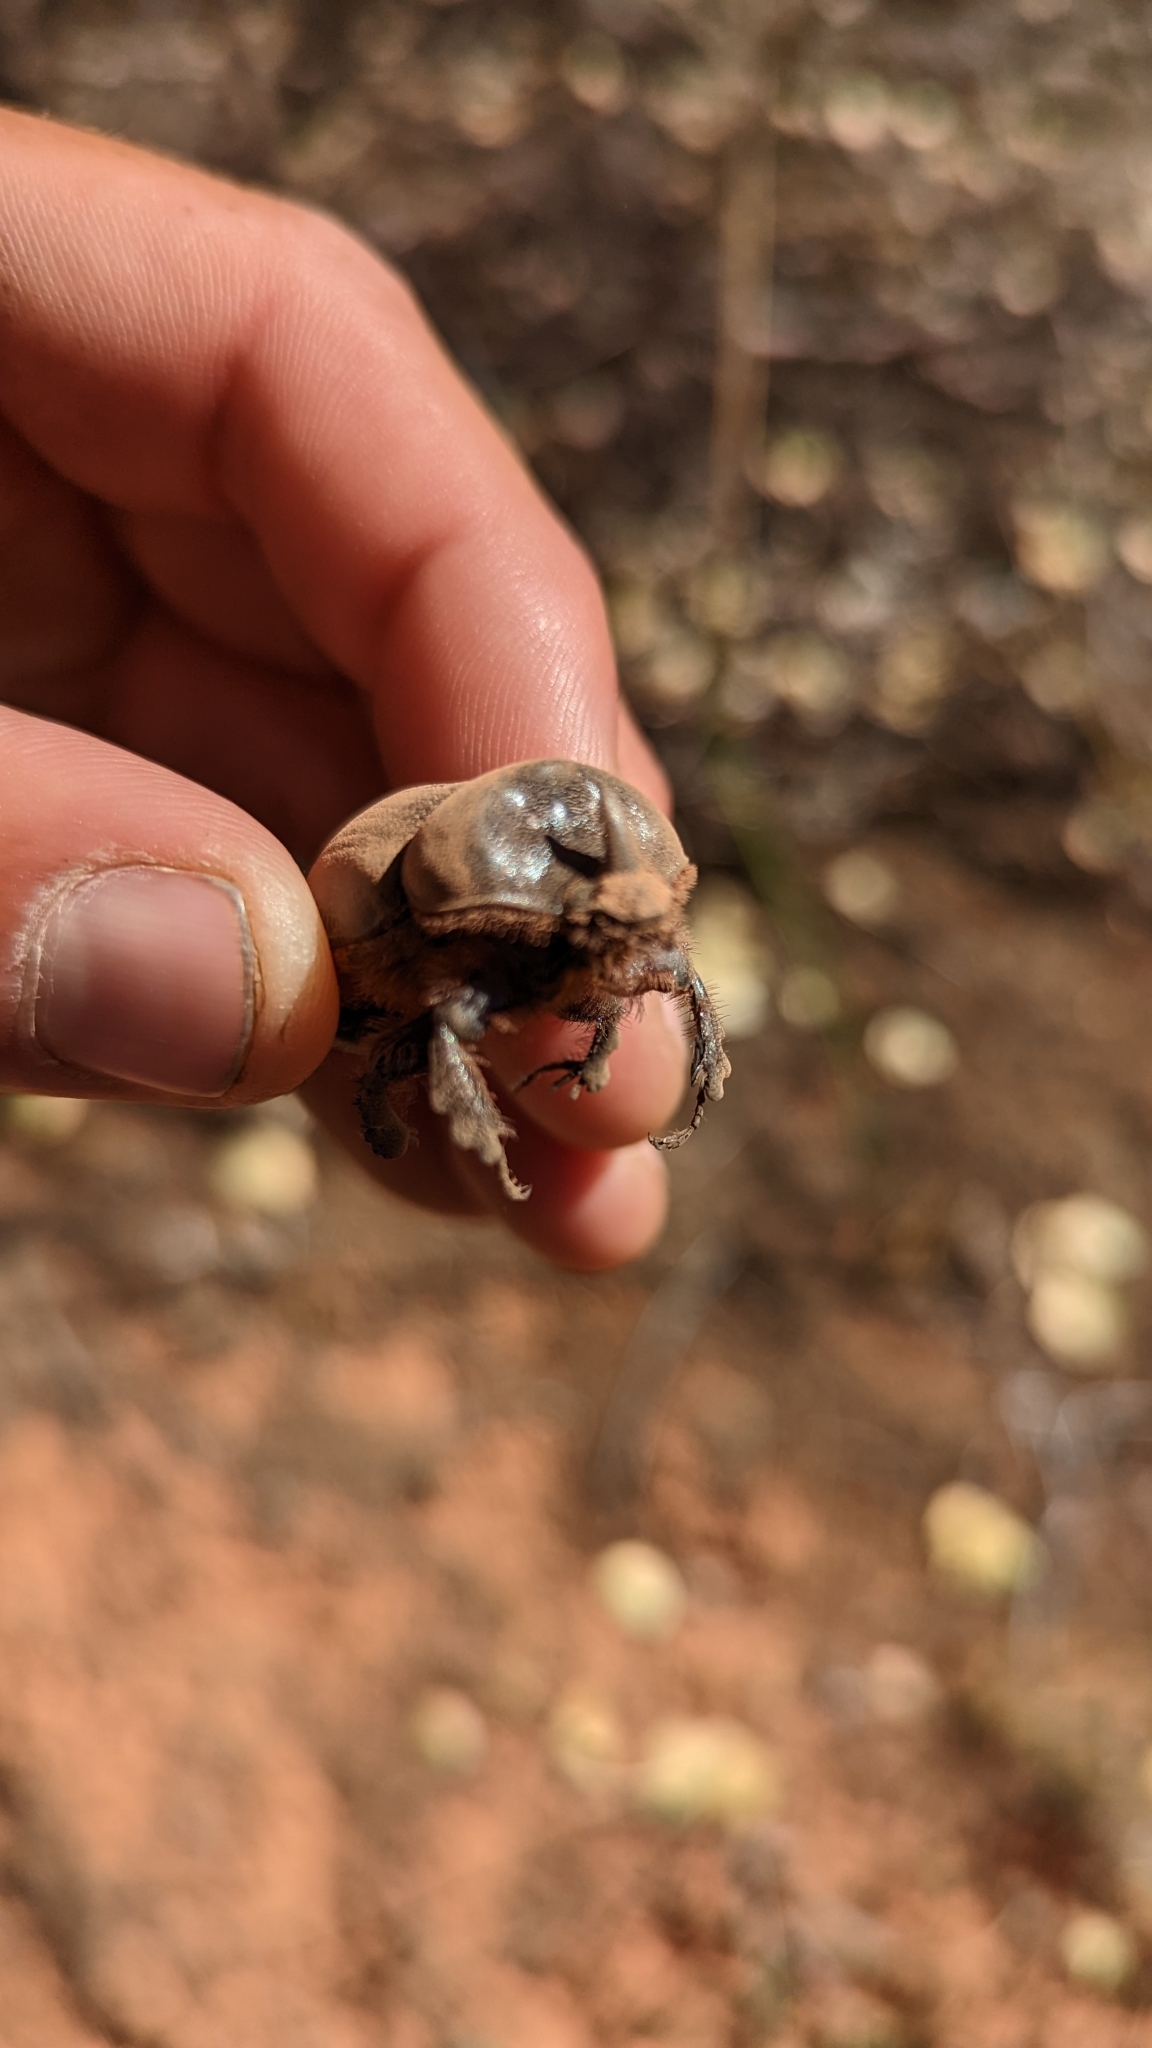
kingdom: Animalia
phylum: Arthropoda
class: Insecta
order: Coleoptera
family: Scarabaeidae
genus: Xyloryctes
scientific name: Xyloryctes thestalus
